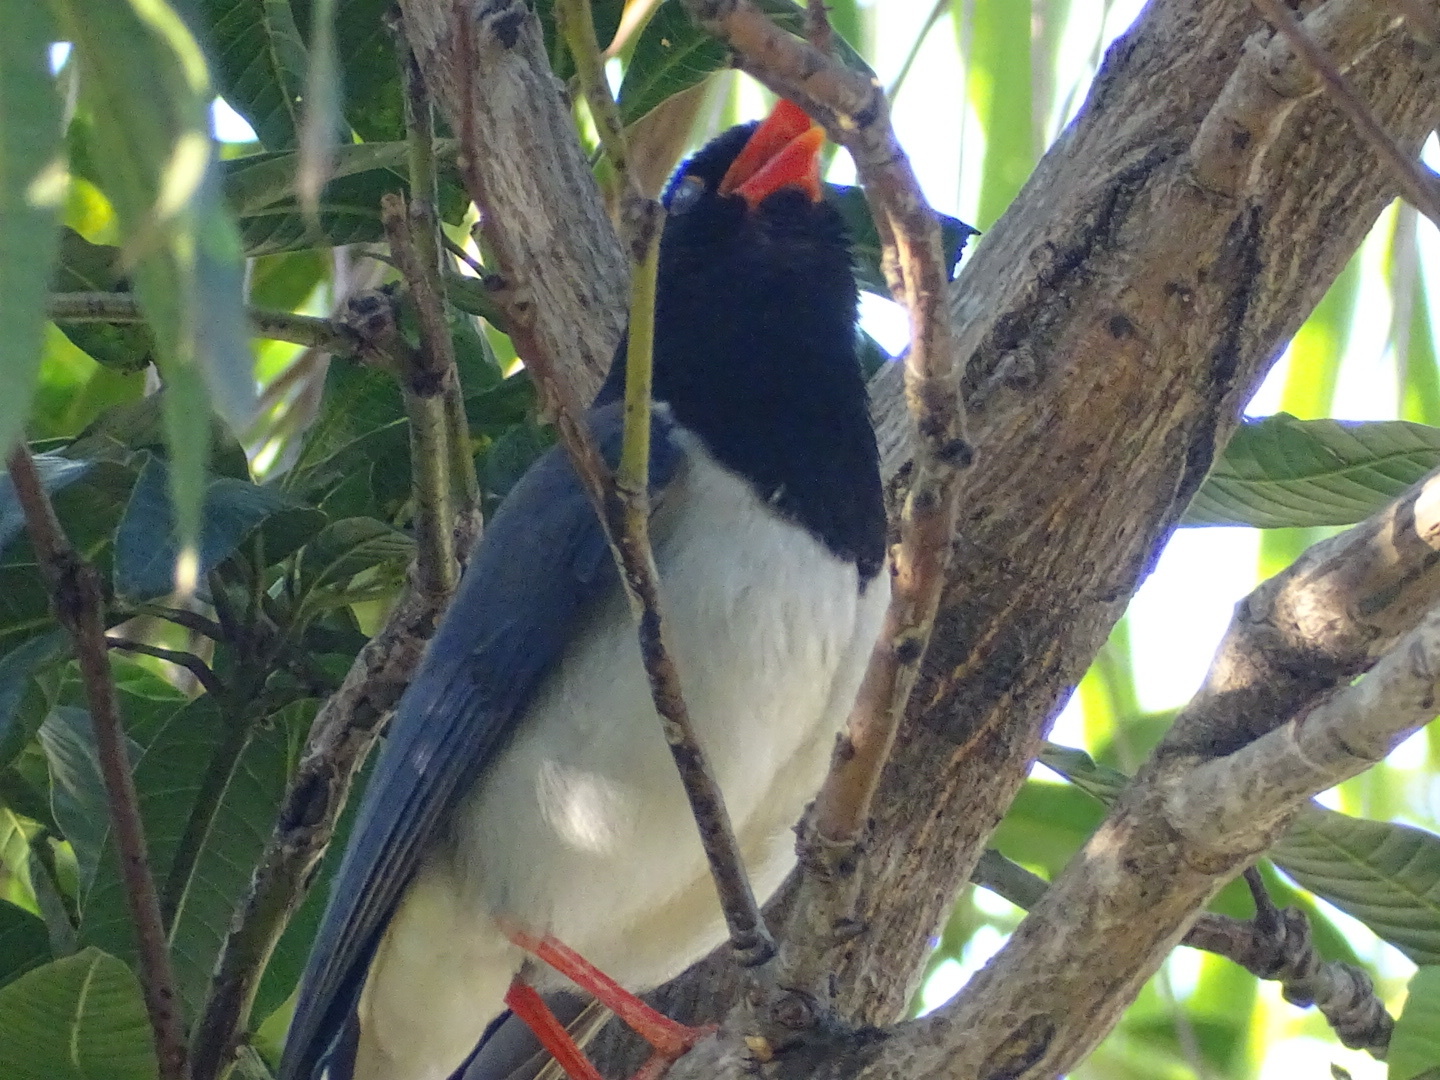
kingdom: Animalia
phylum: Chordata
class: Aves
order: Passeriformes
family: Corvidae
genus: Urocissa
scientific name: Urocissa erythroryncha
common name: Red-billed blue magpie
